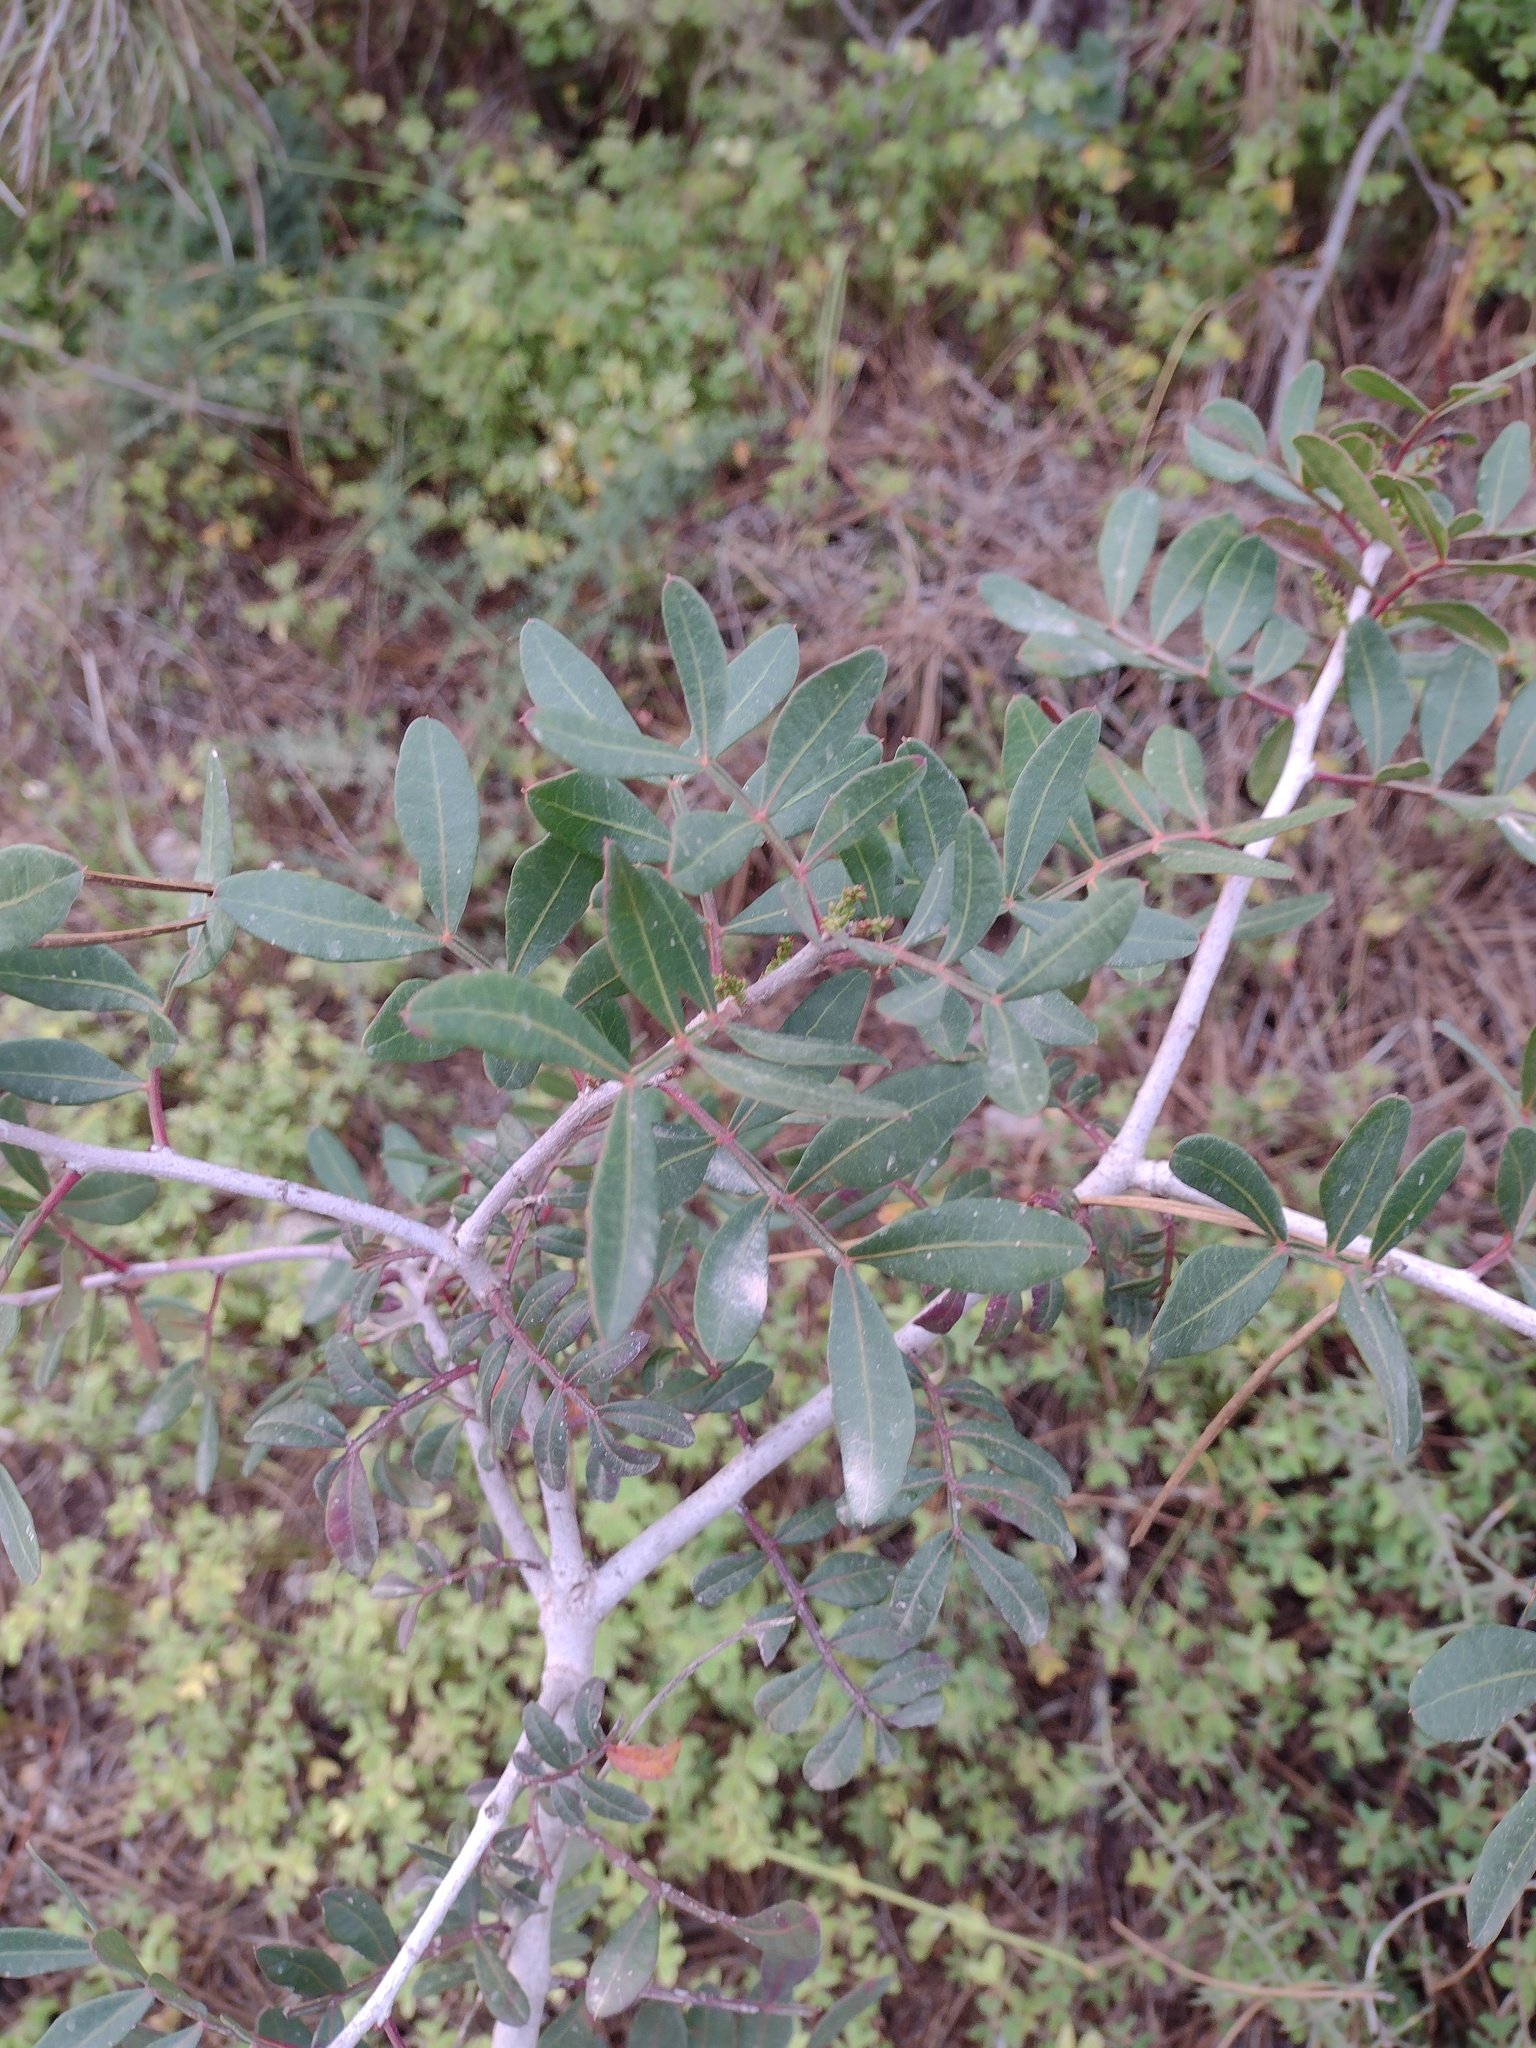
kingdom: Plantae
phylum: Tracheophyta
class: Magnoliopsida
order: Sapindales
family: Anacardiaceae
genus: Pistacia
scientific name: Pistacia lentiscus
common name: Lentisk
